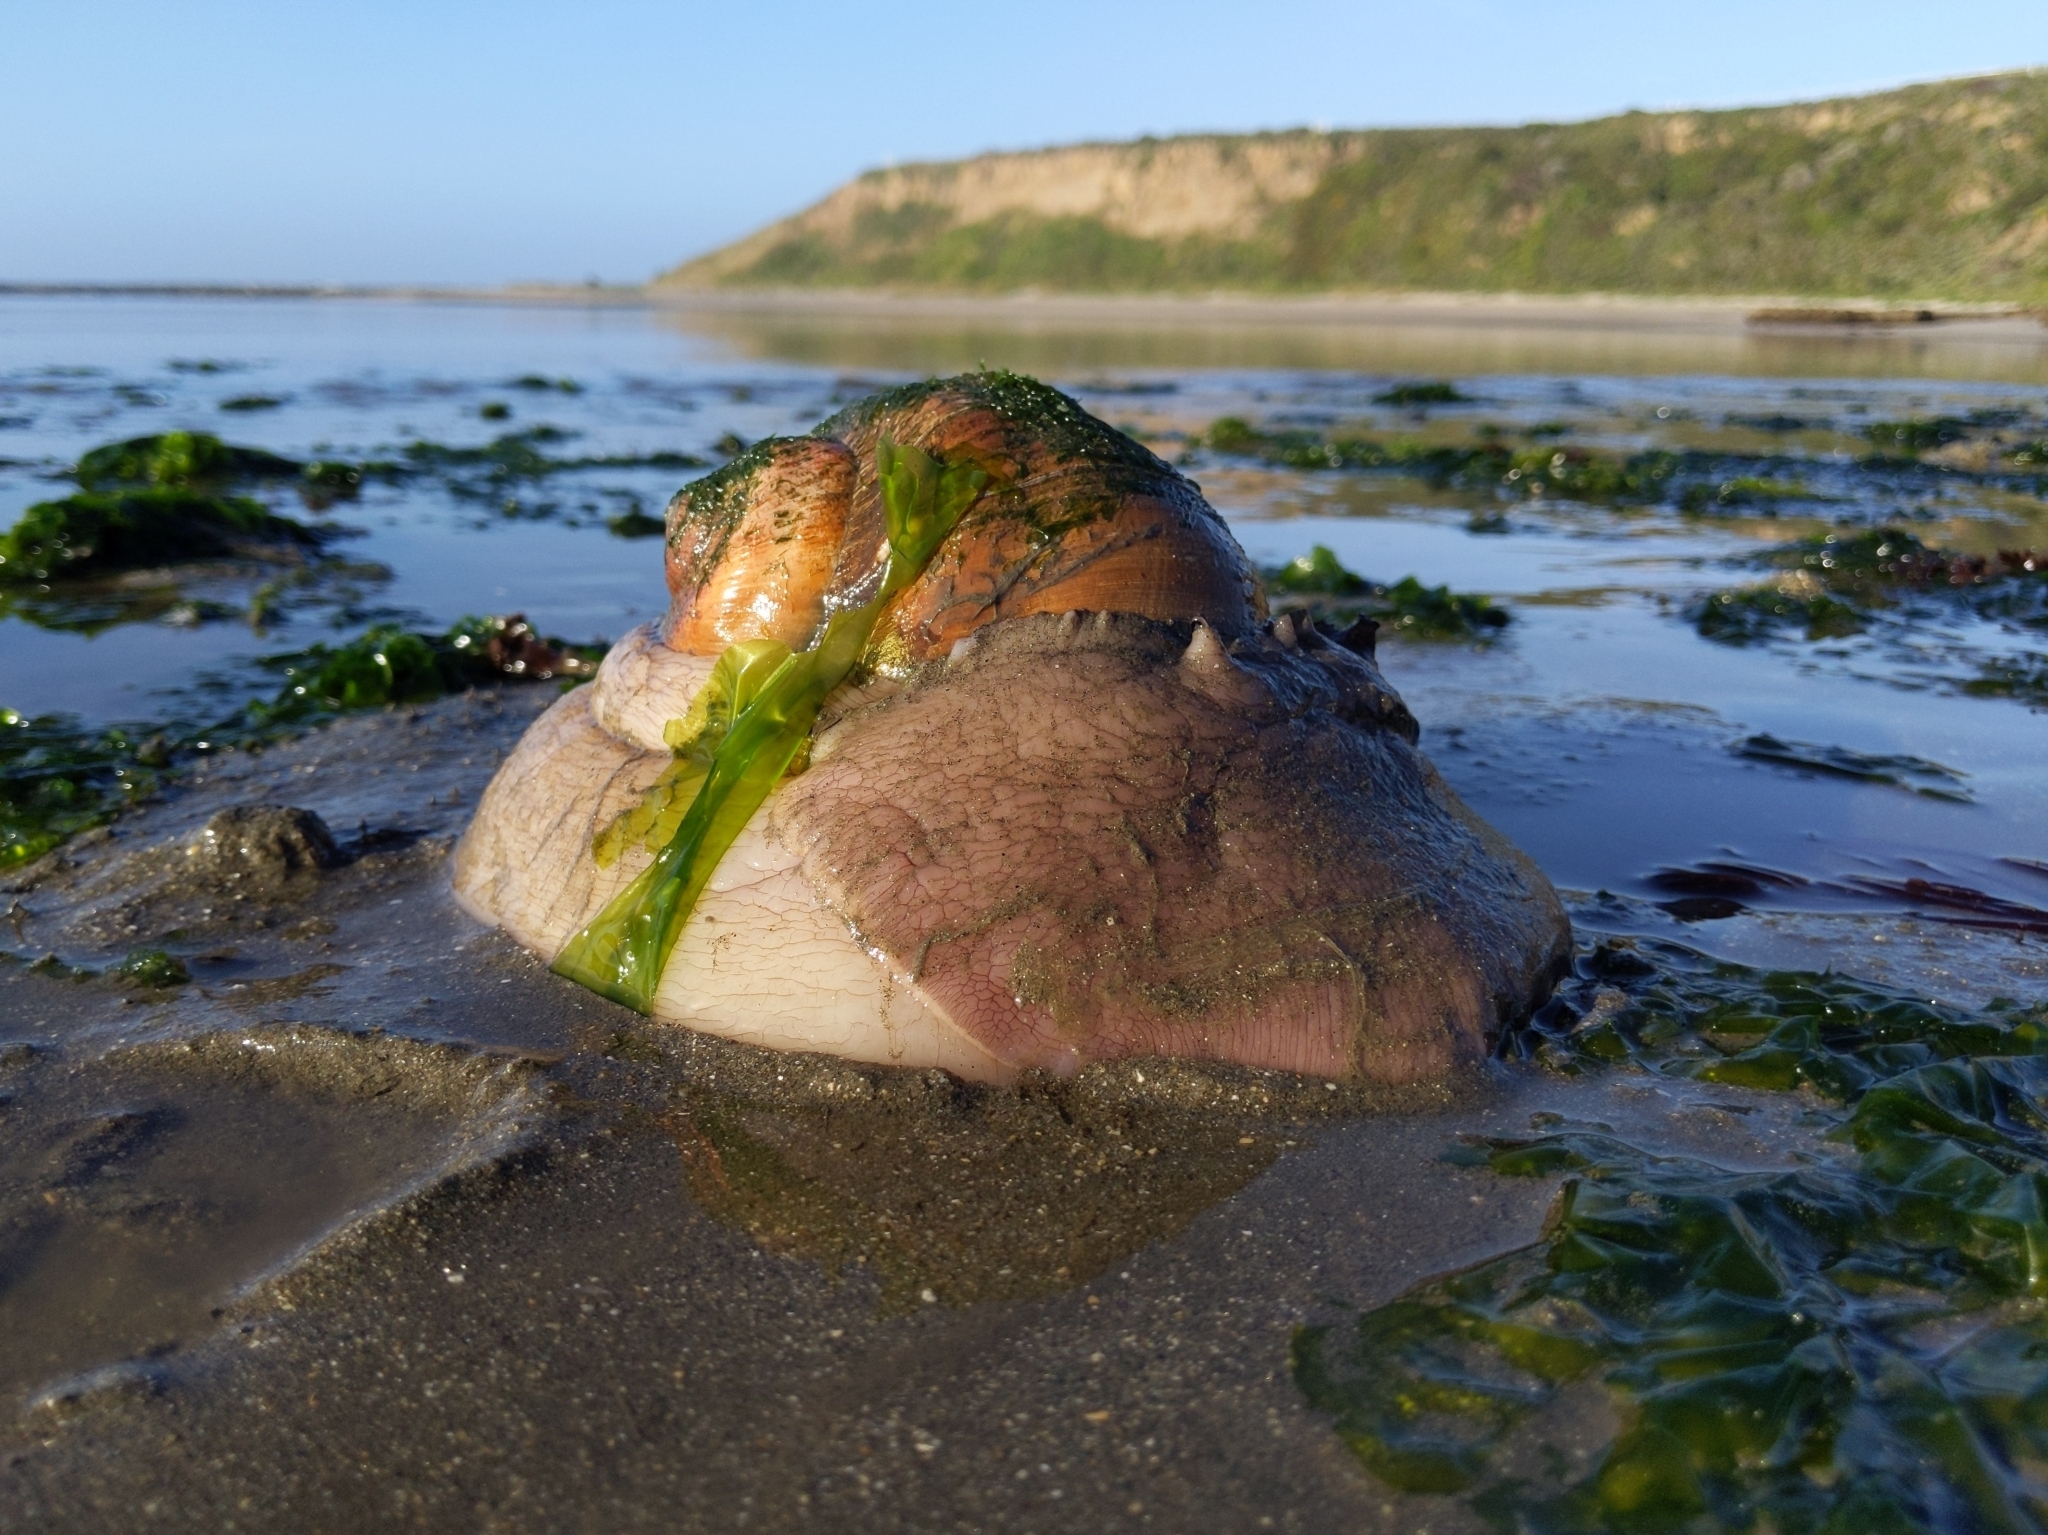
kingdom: Animalia
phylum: Mollusca
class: Gastropoda
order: Littorinimorpha
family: Naticidae
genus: Neverita
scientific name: Neverita lewisii
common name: Lewis' moonsnail
